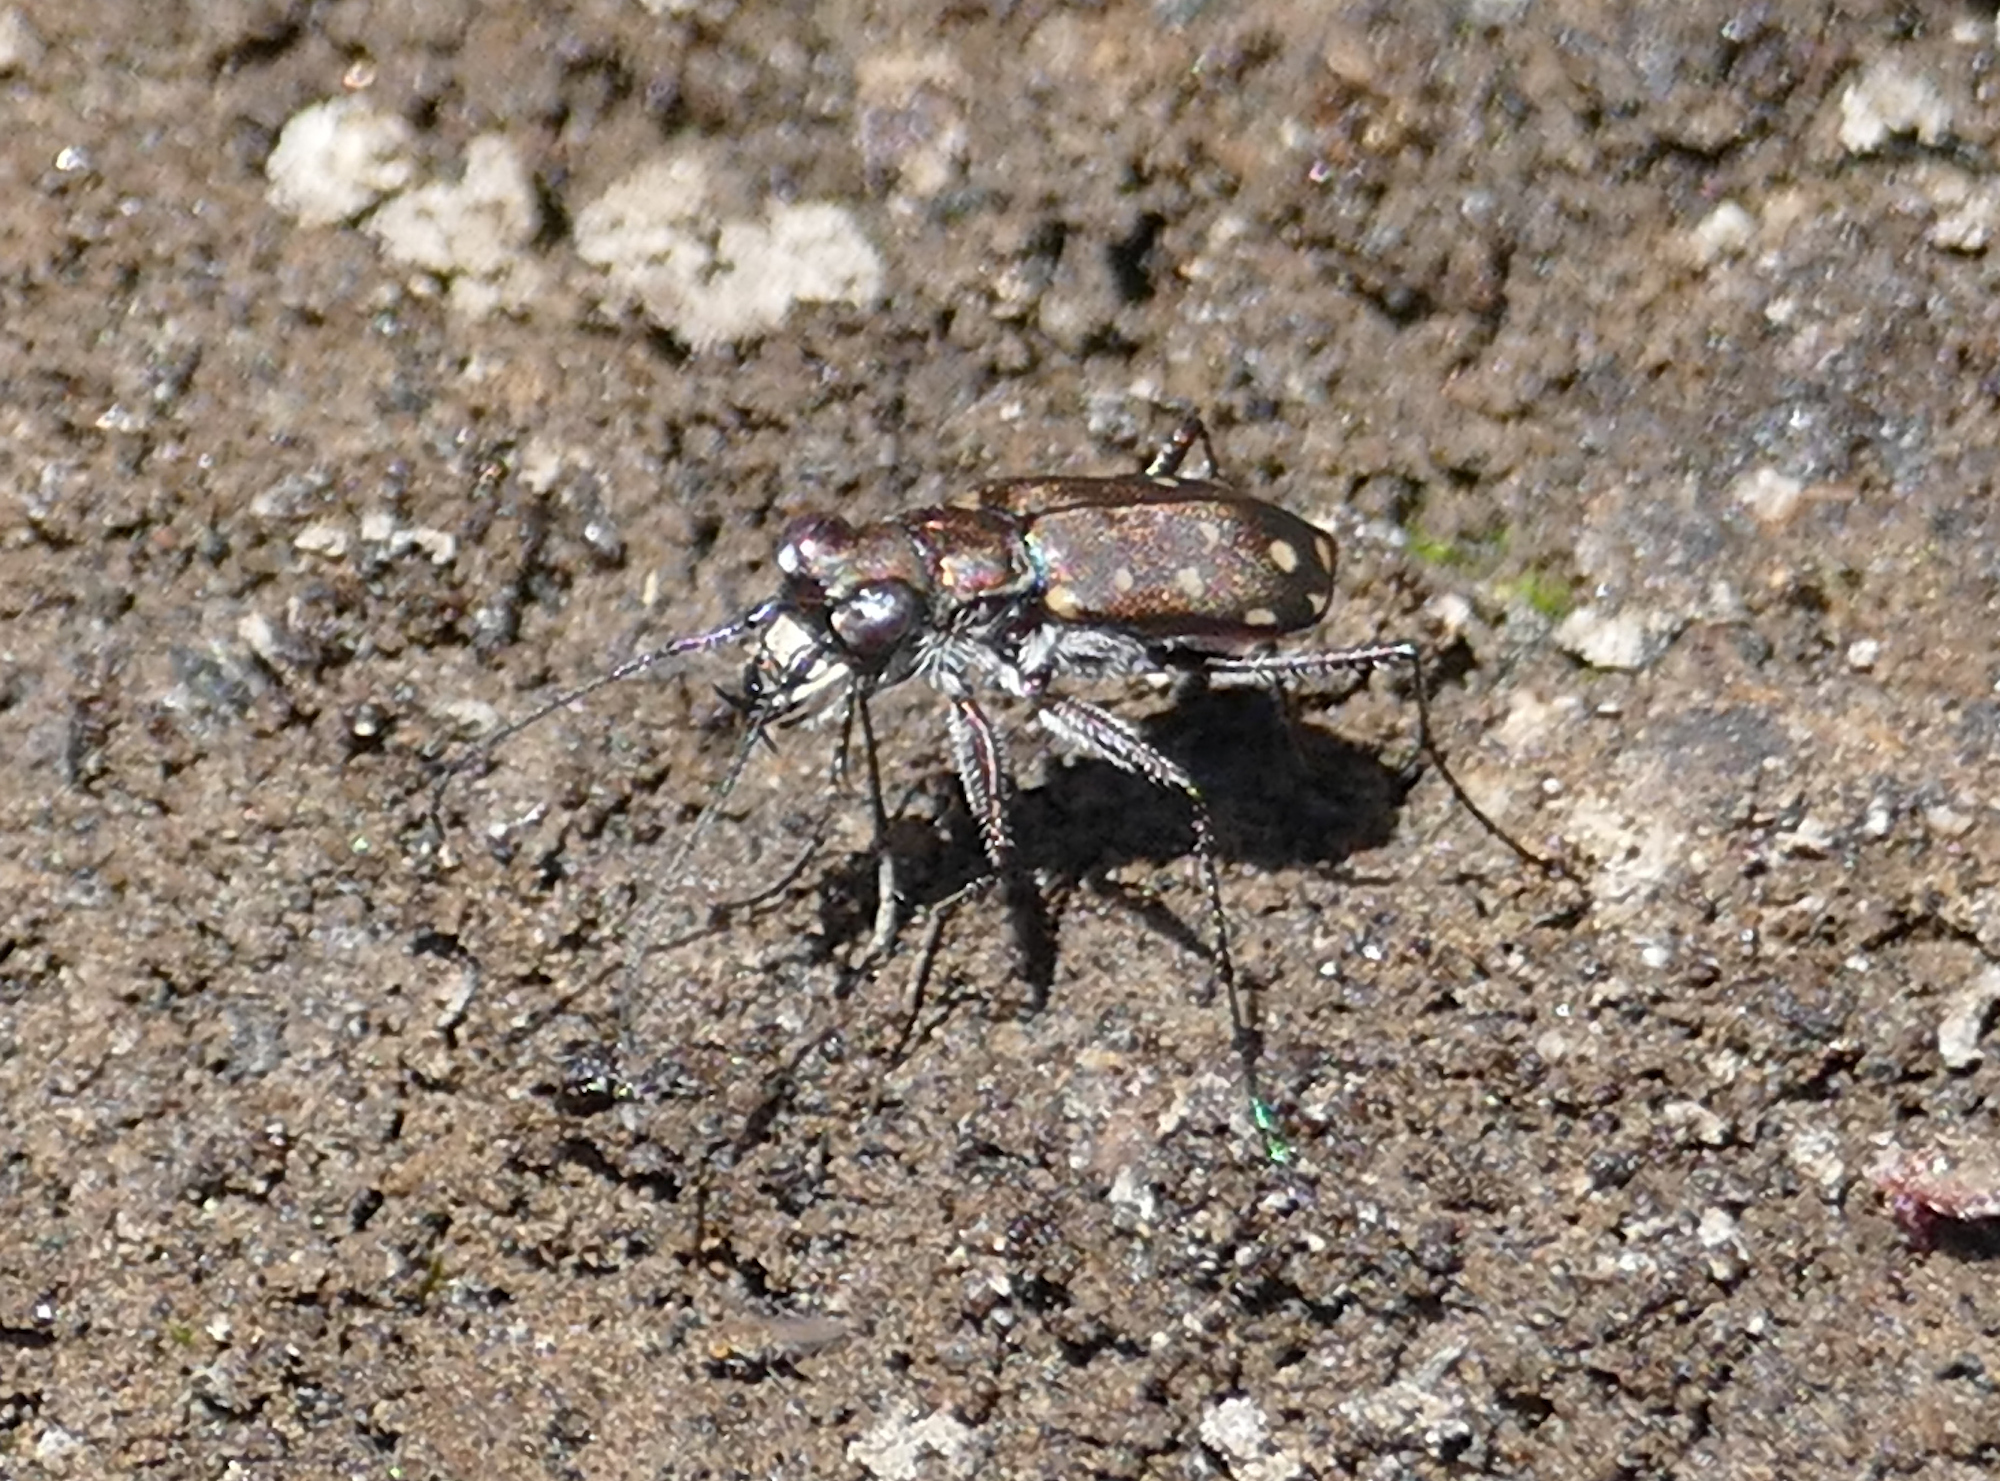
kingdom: Animalia
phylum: Arthropoda
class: Insecta
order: Coleoptera
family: Carabidae
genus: Cicindela
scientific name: Cicindela sedecimpunctata
